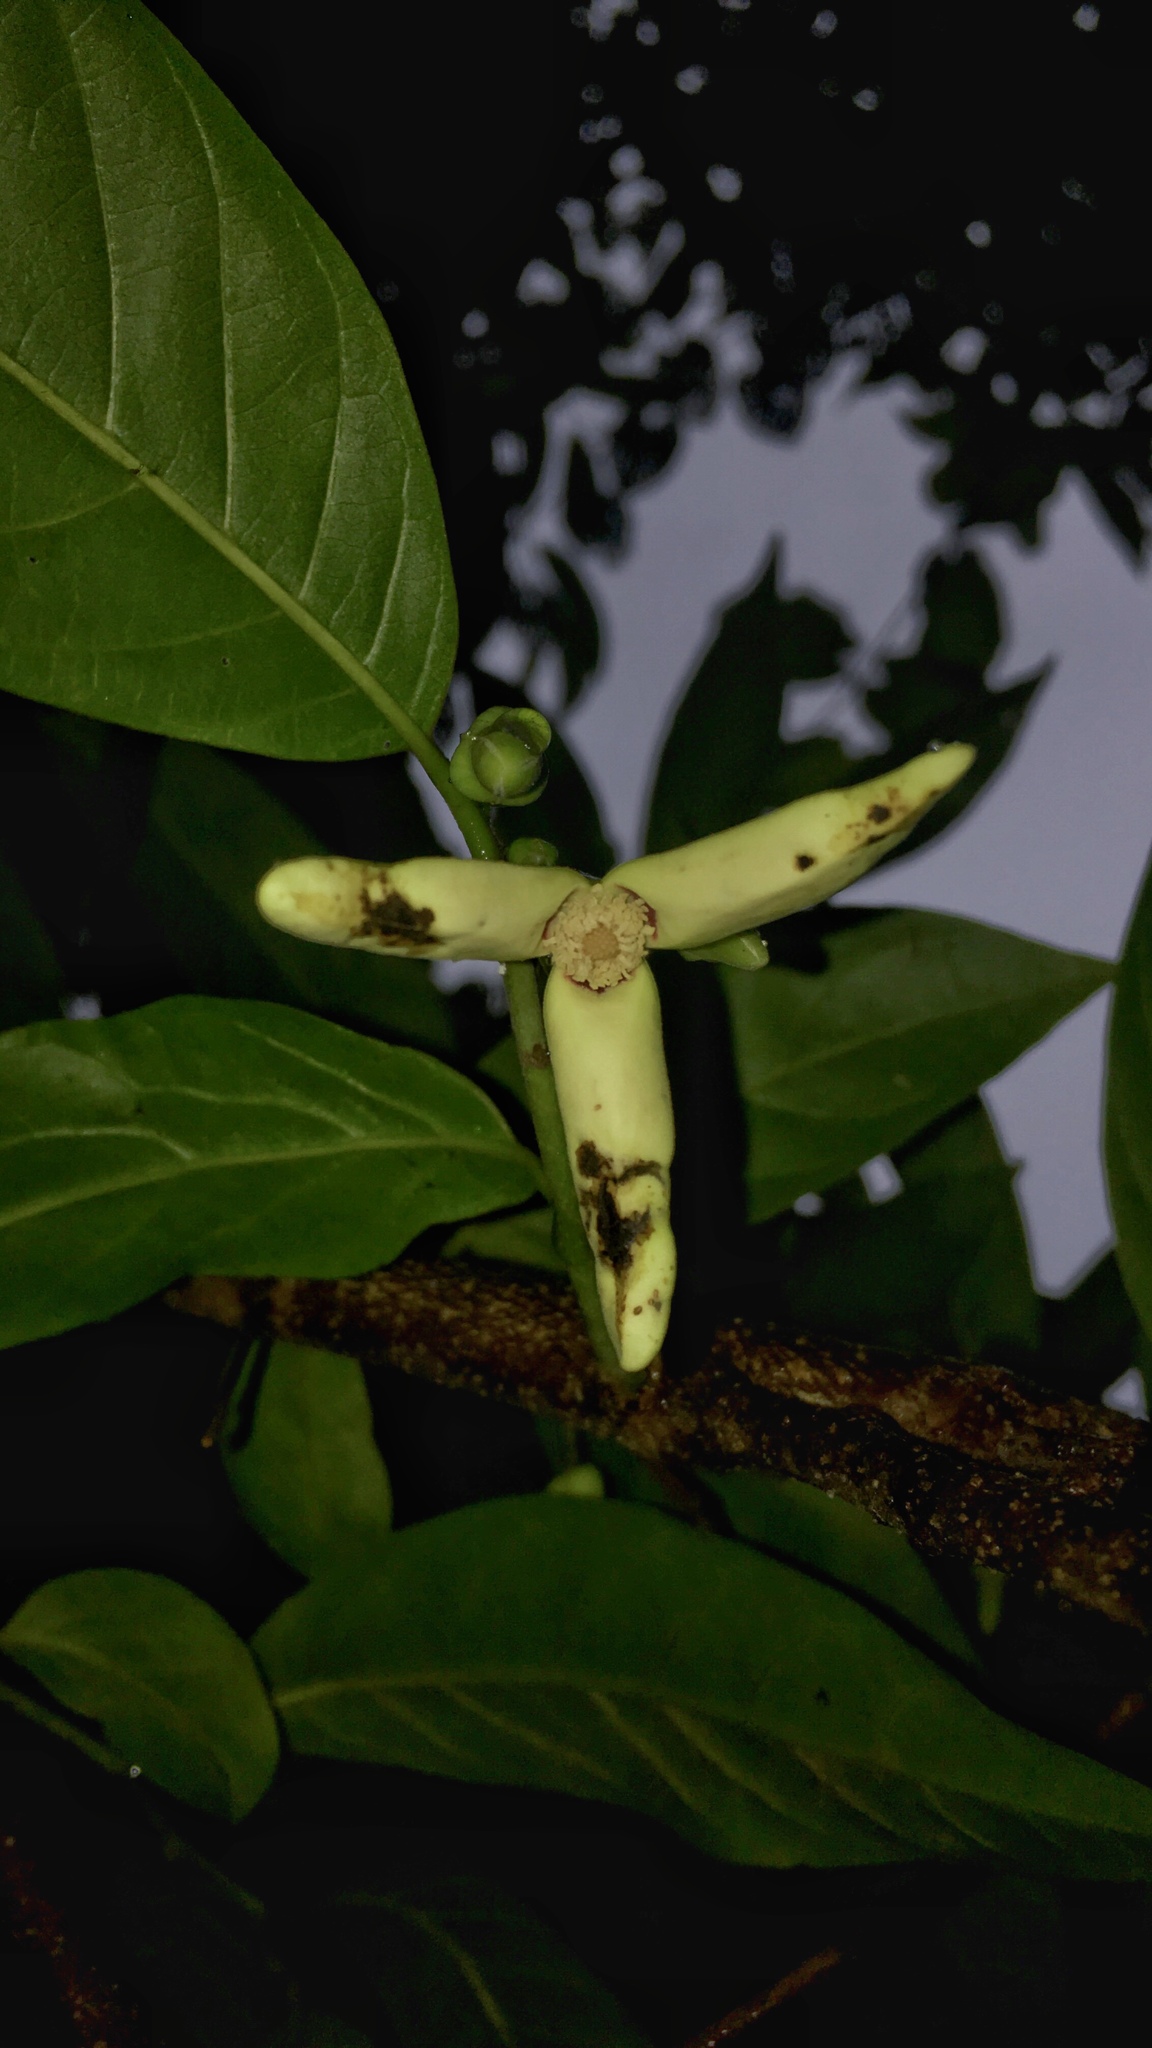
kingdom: Plantae
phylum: Tracheophyta
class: Magnoliopsida
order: Magnoliales
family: Annonaceae
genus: Annona
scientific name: Annona reticulata
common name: Custard apple
